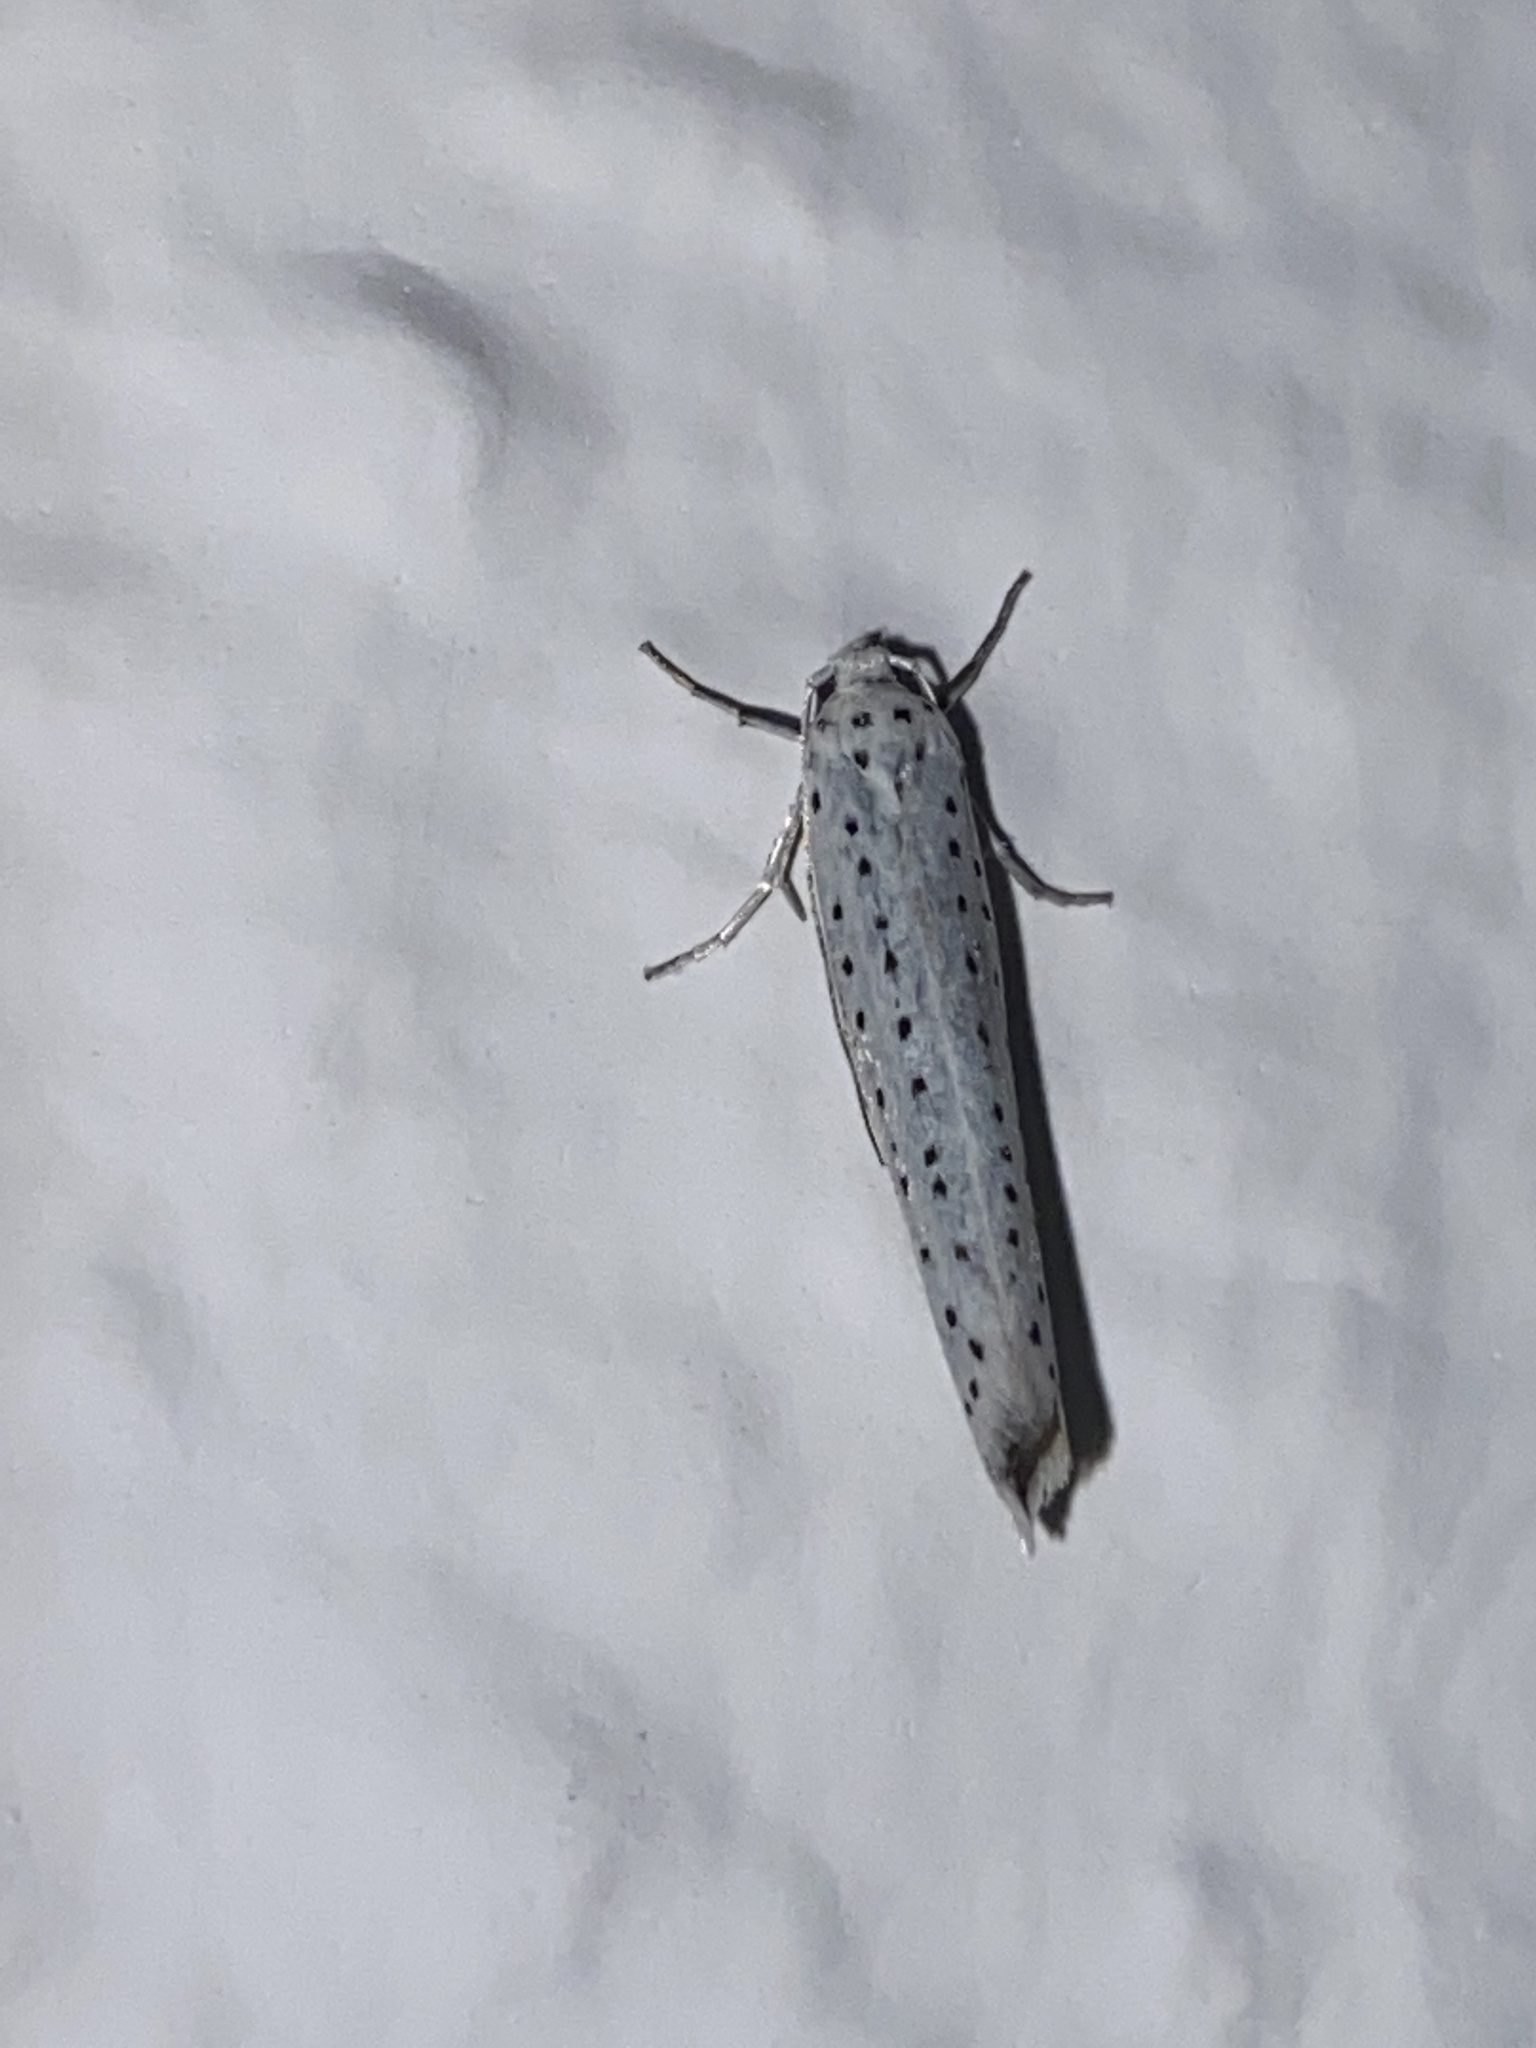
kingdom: Animalia
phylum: Arthropoda
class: Insecta
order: Lepidoptera
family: Yponomeutidae
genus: Yponomeuta
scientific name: Yponomeuta evonymella
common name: Bird-cherry ermine
